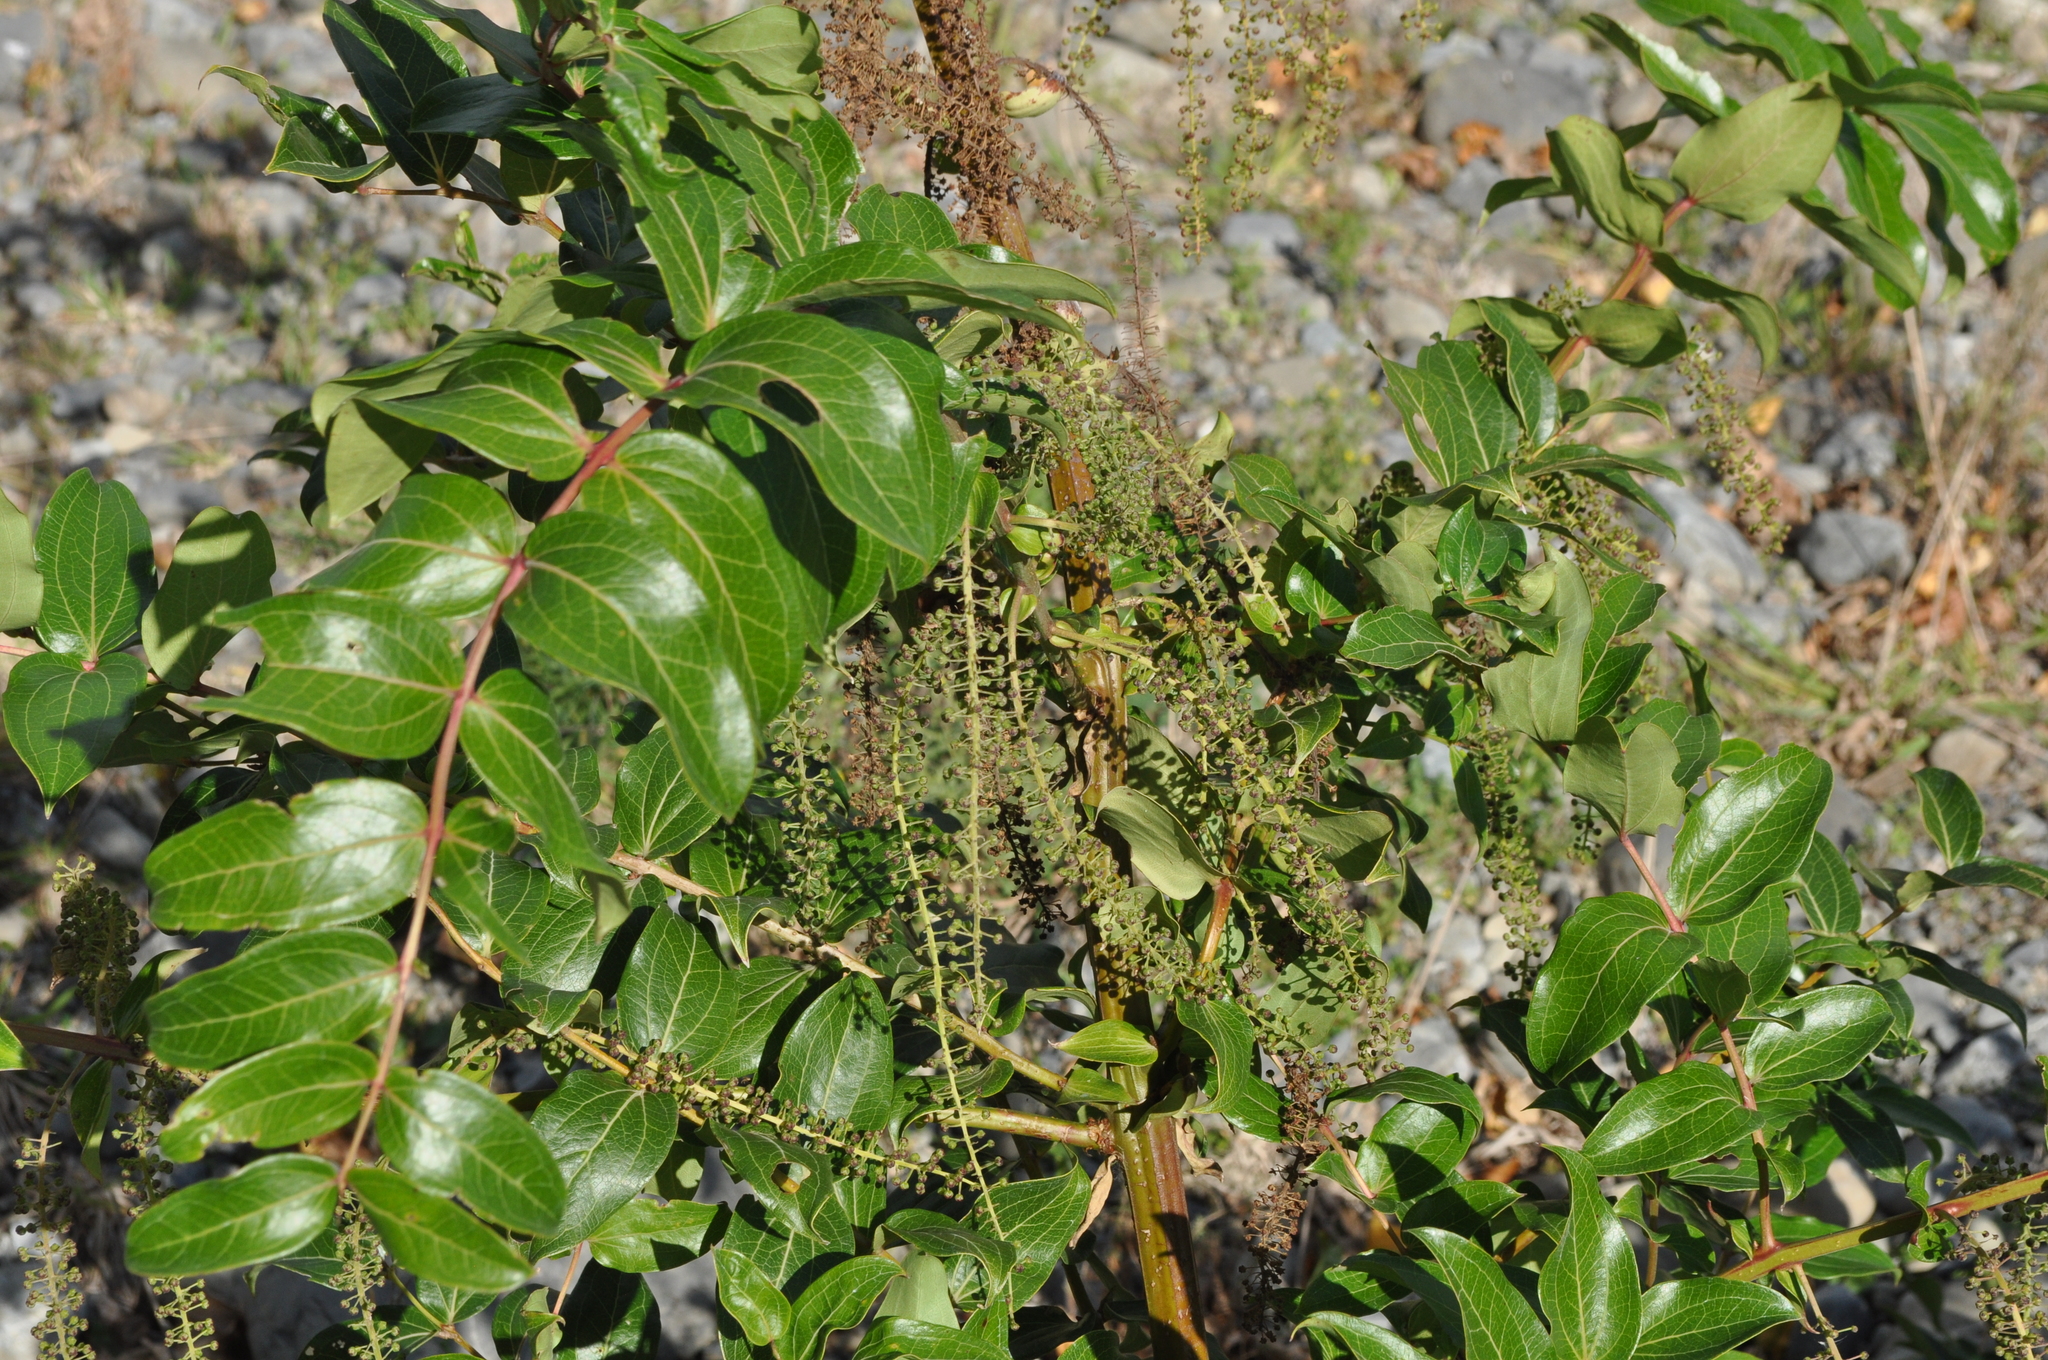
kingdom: Plantae
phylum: Tracheophyta
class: Magnoliopsida
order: Cucurbitales
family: Coriariaceae
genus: Coriaria
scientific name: Coriaria arborea
